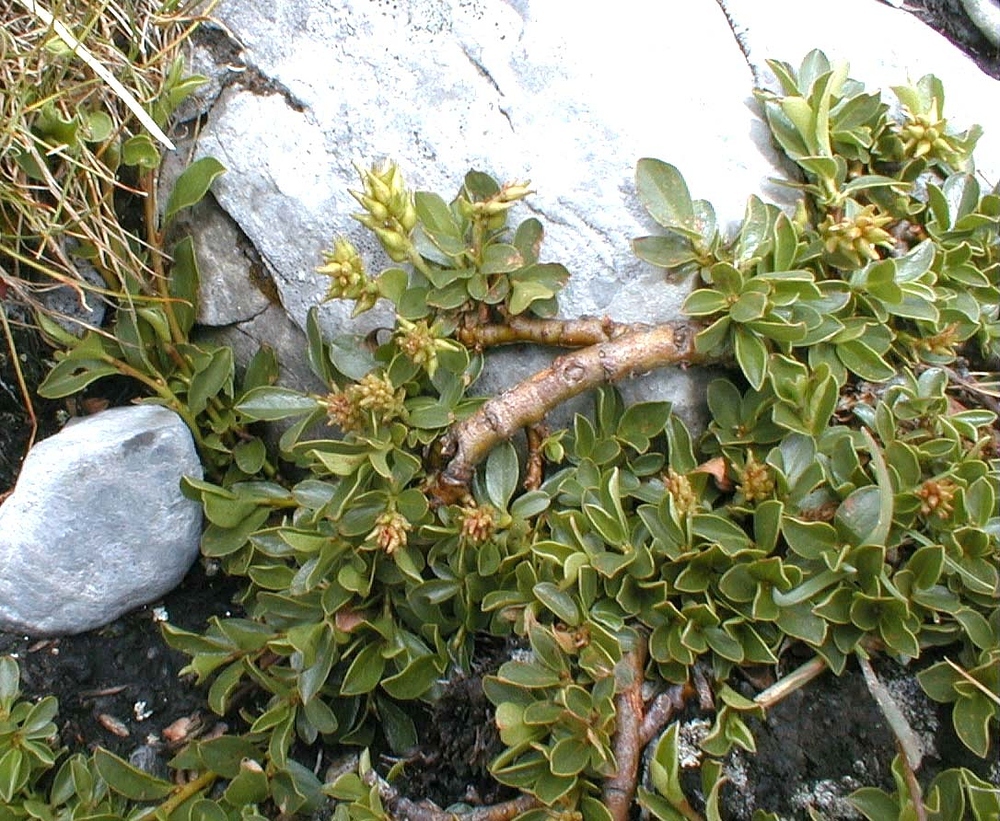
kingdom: Plantae
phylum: Tracheophyta
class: Magnoliopsida
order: Malpighiales
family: Salicaceae
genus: Salix
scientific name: Salix retusa
